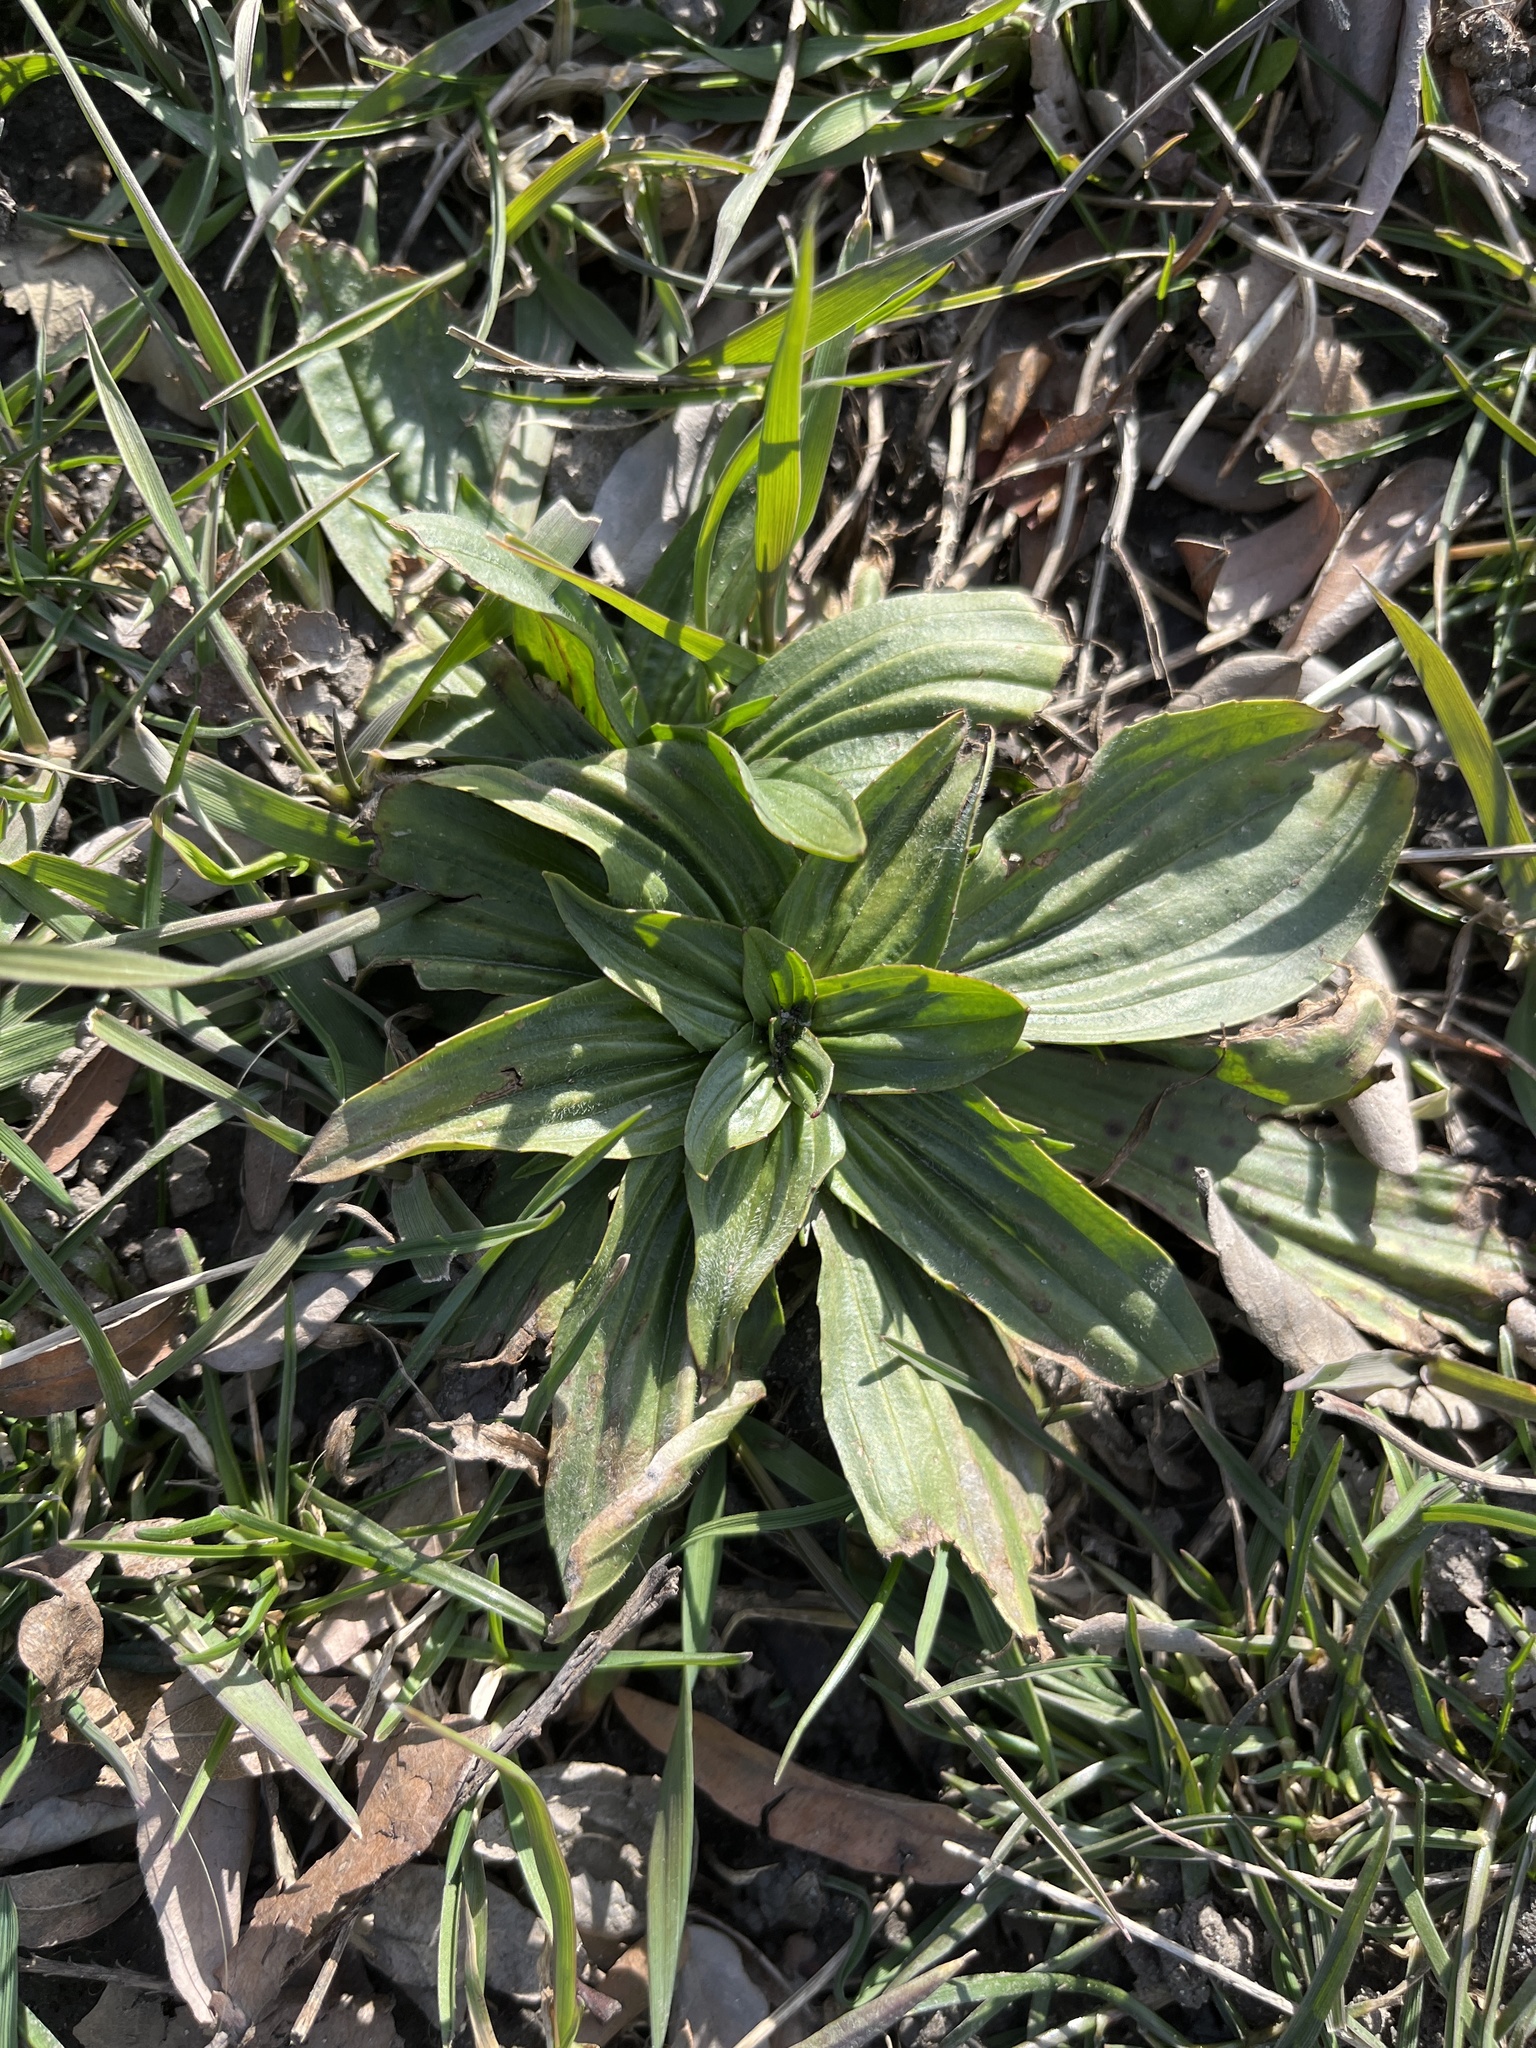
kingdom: Plantae
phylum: Tracheophyta
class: Magnoliopsida
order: Lamiales
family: Plantaginaceae
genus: Plantago
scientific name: Plantago lanceolata
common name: Ribwort plantain
